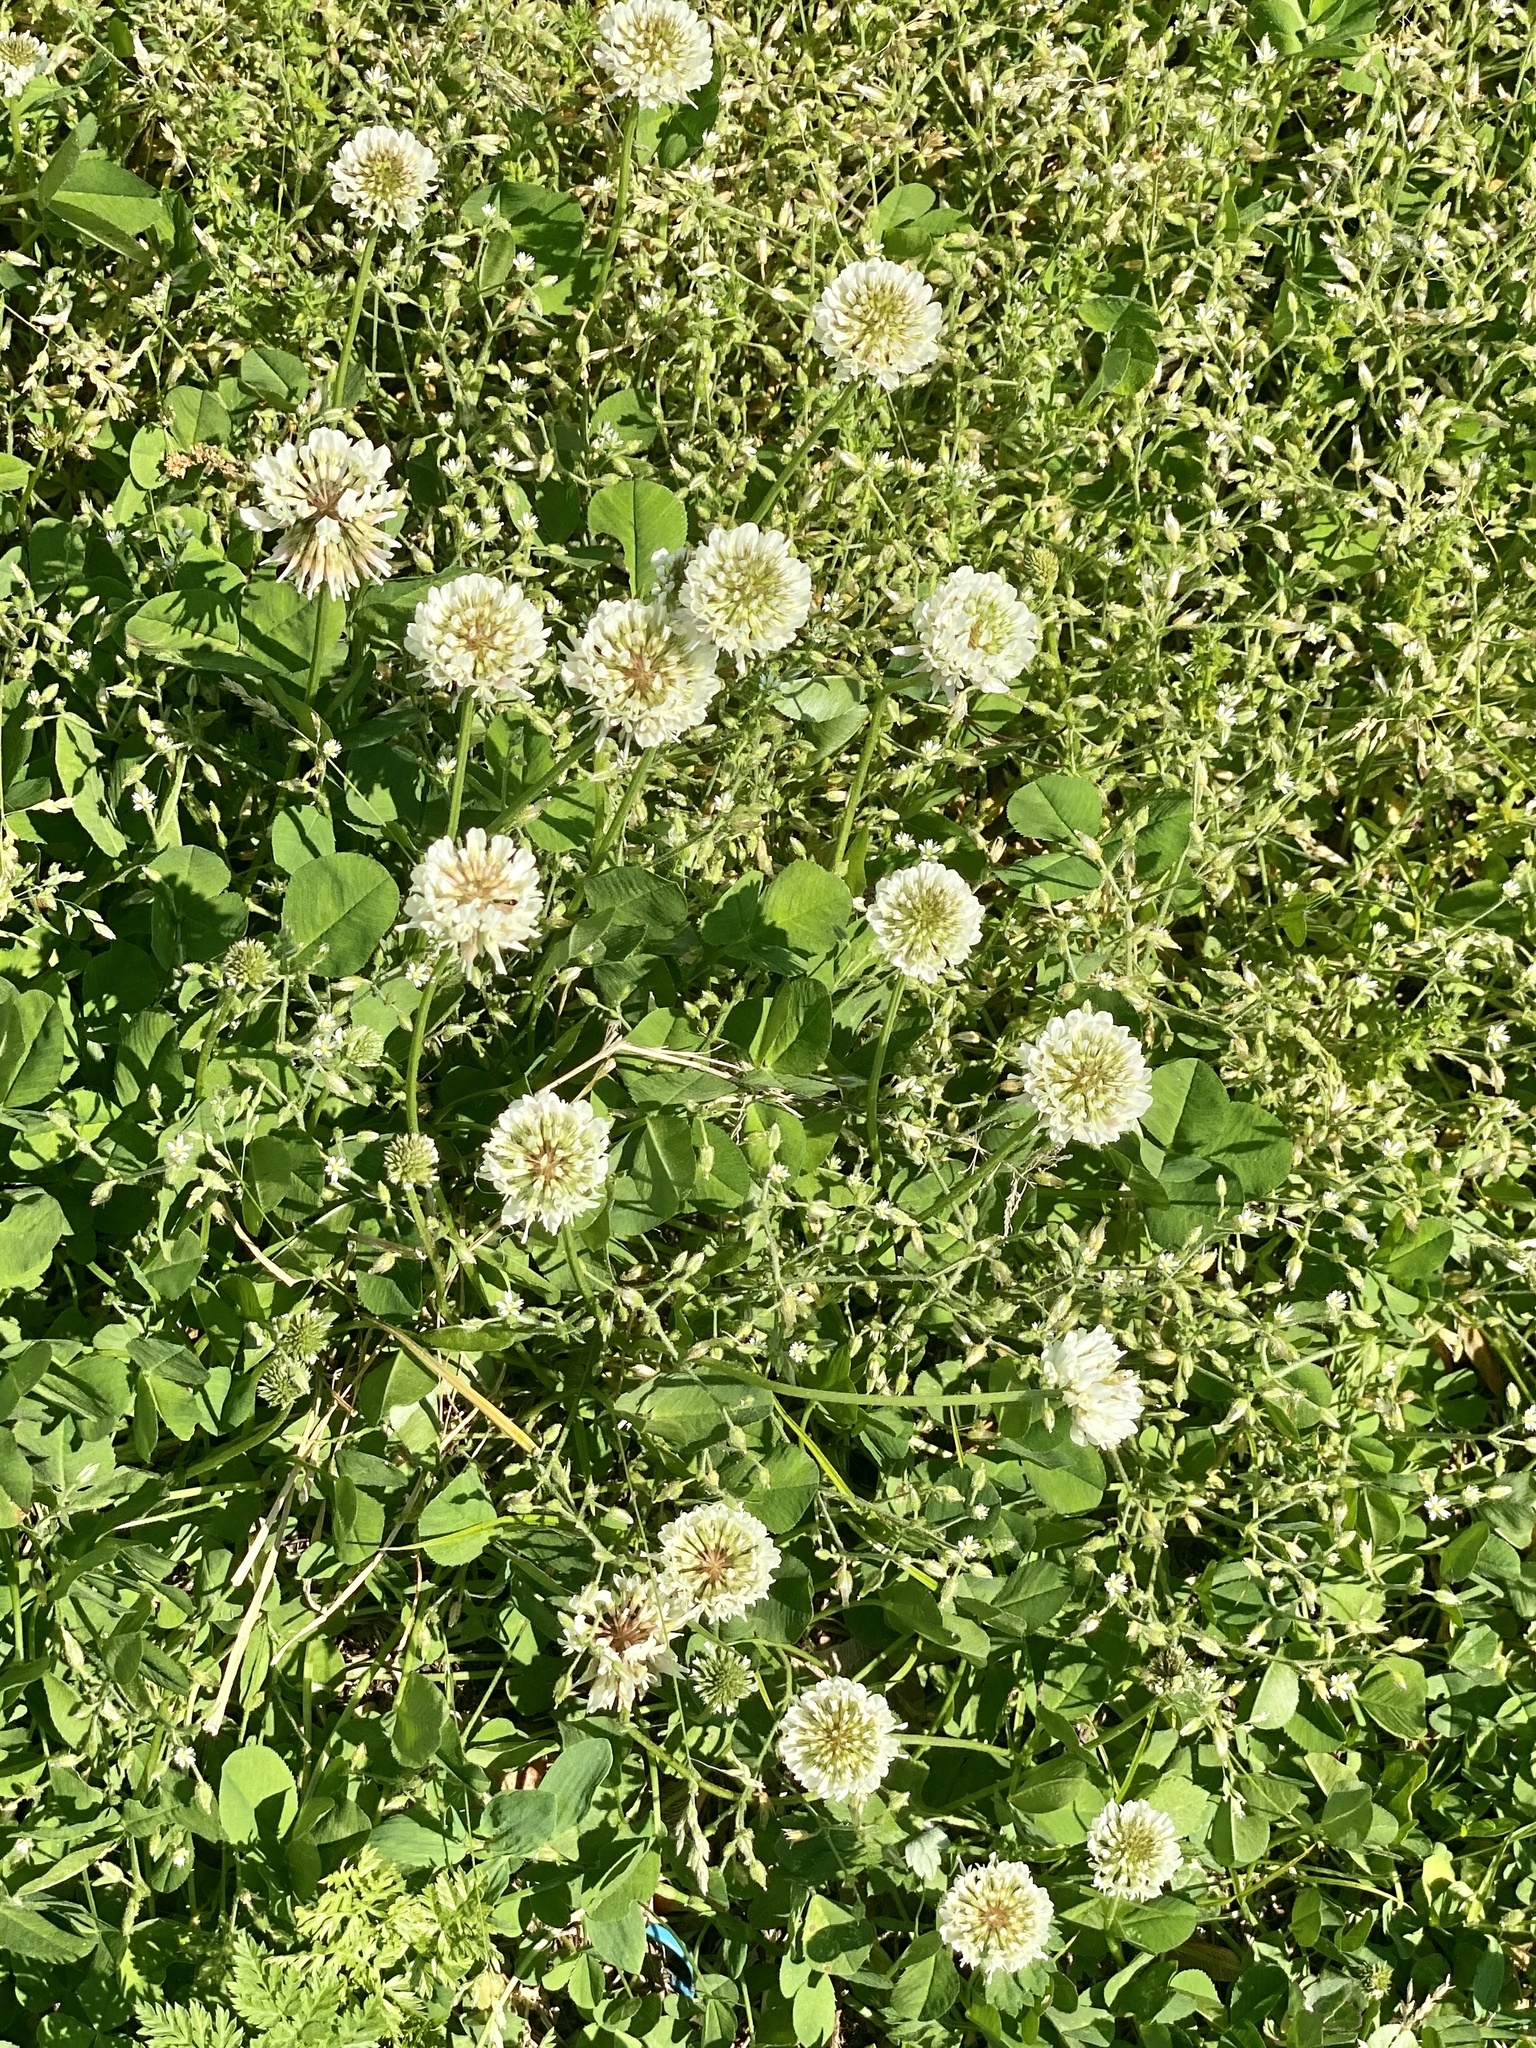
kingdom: Plantae
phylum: Tracheophyta
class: Magnoliopsida
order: Fabales
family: Fabaceae
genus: Trifolium
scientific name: Trifolium repens
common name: White clover
